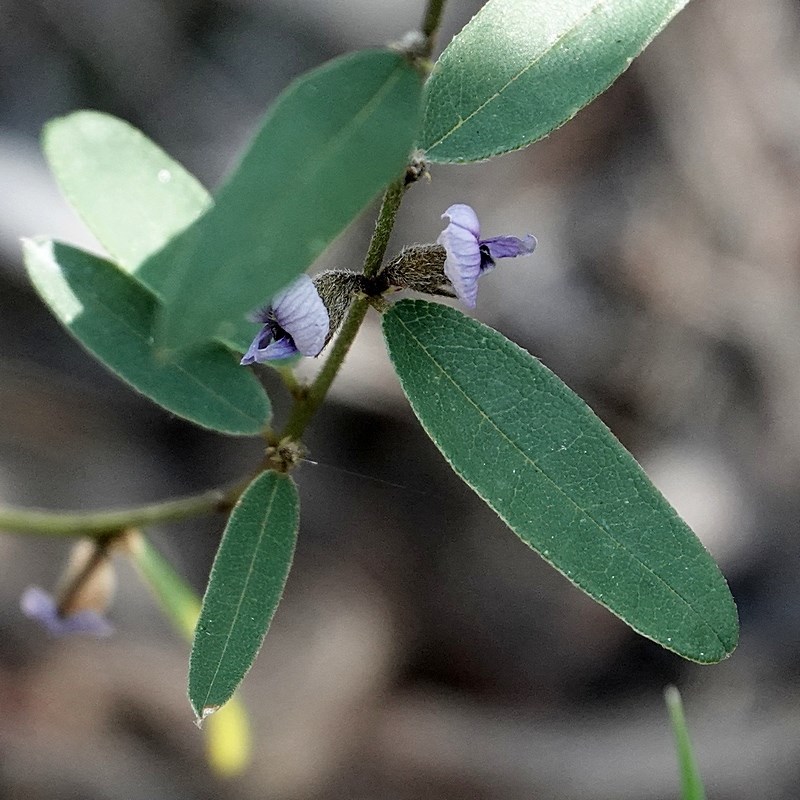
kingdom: Plantae
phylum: Tracheophyta
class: Magnoliopsida
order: Fabales
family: Fabaceae
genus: Hovea
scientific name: Hovea heterophylla
